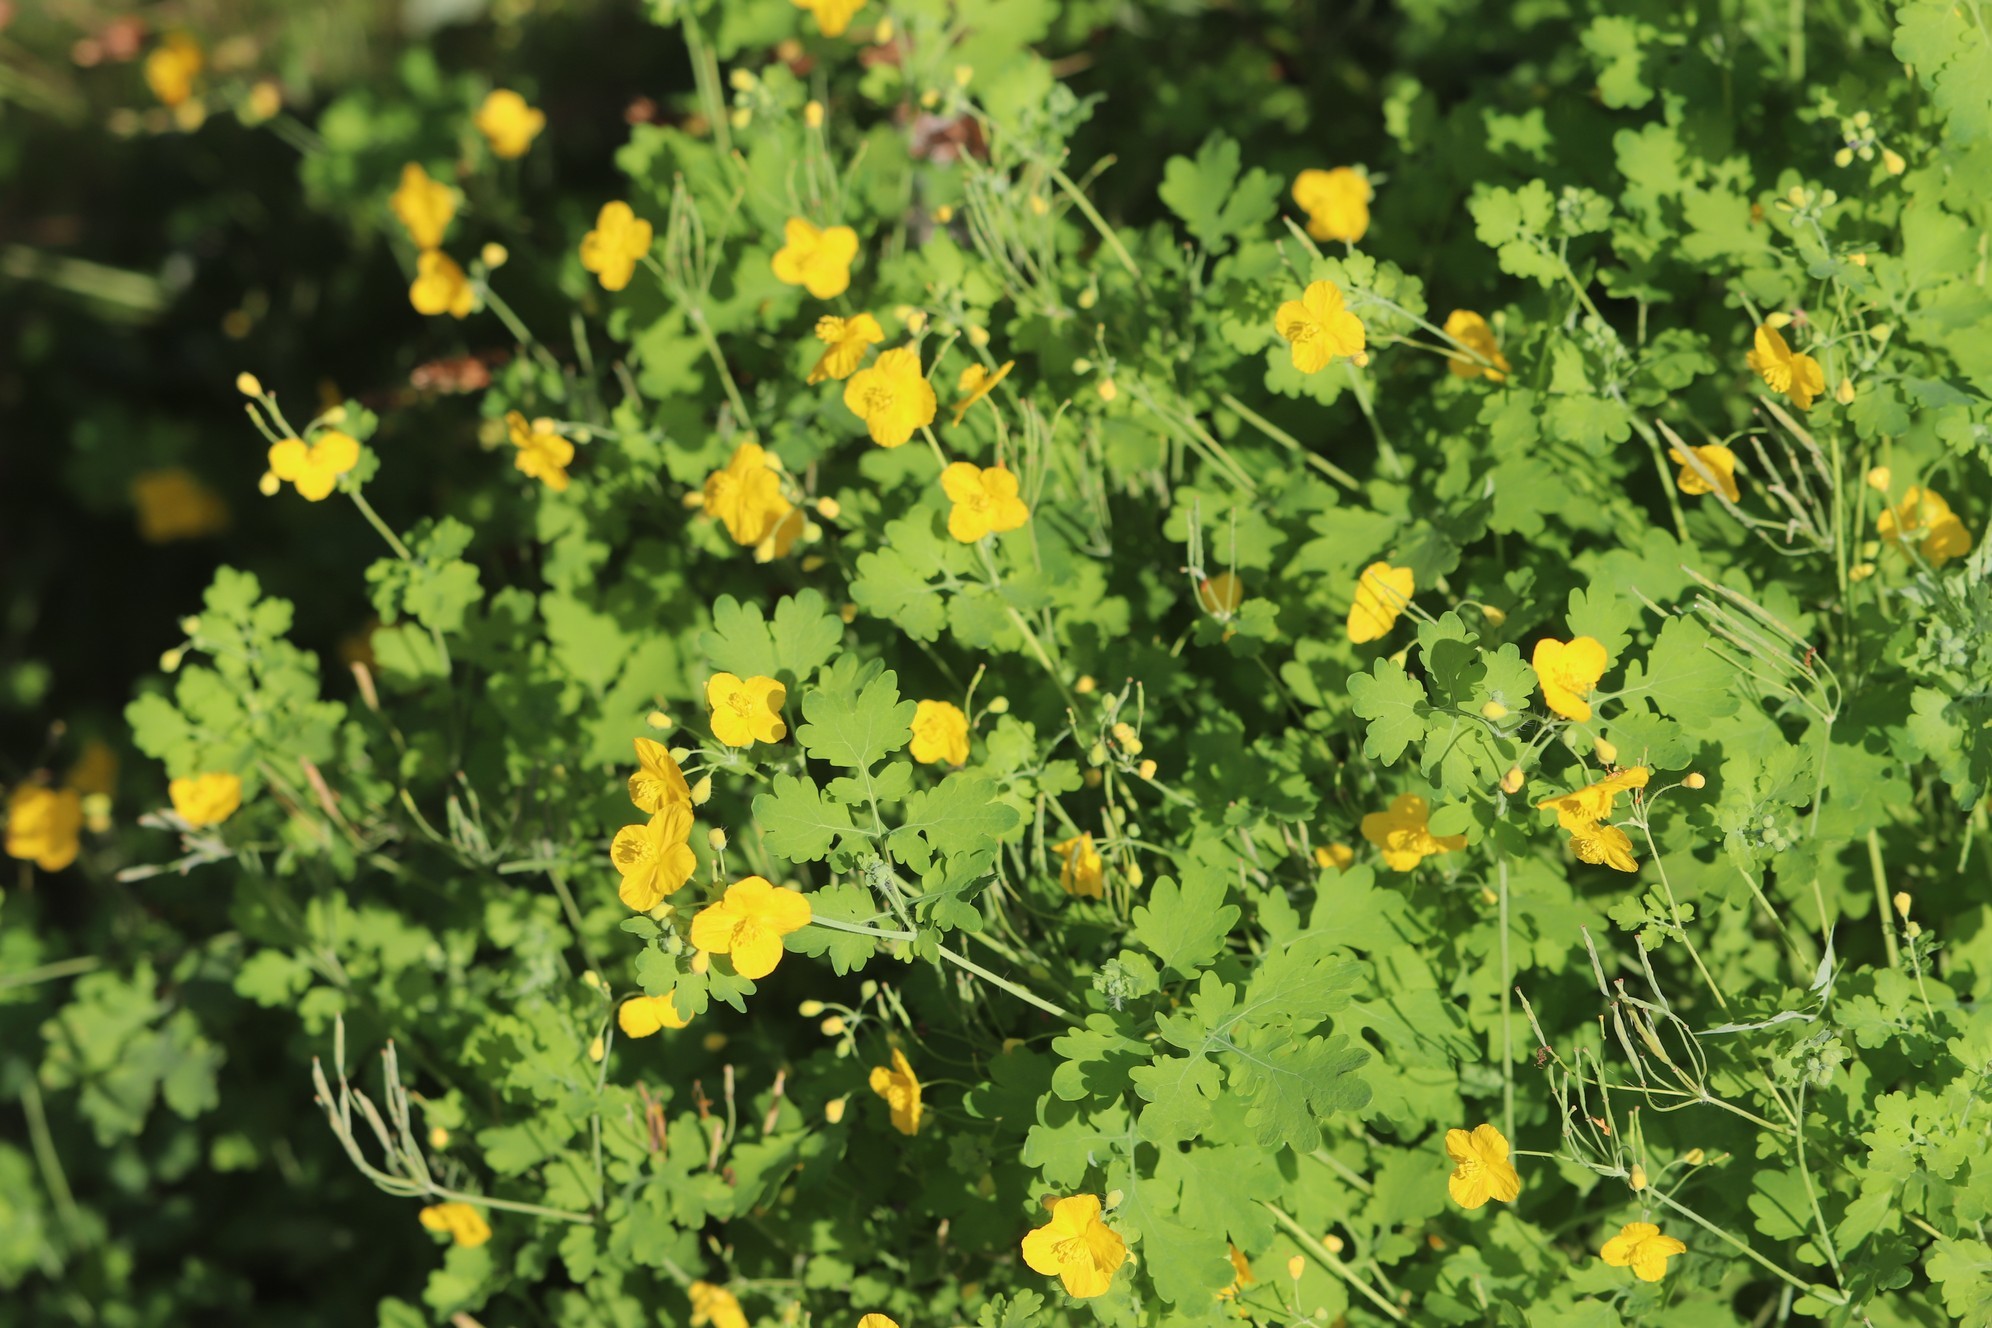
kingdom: Plantae
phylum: Tracheophyta
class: Magnoliopsida
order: Ranunculales
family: Papaveraceae
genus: Chelidonium
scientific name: Chelidonium majus
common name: Greater celandine
